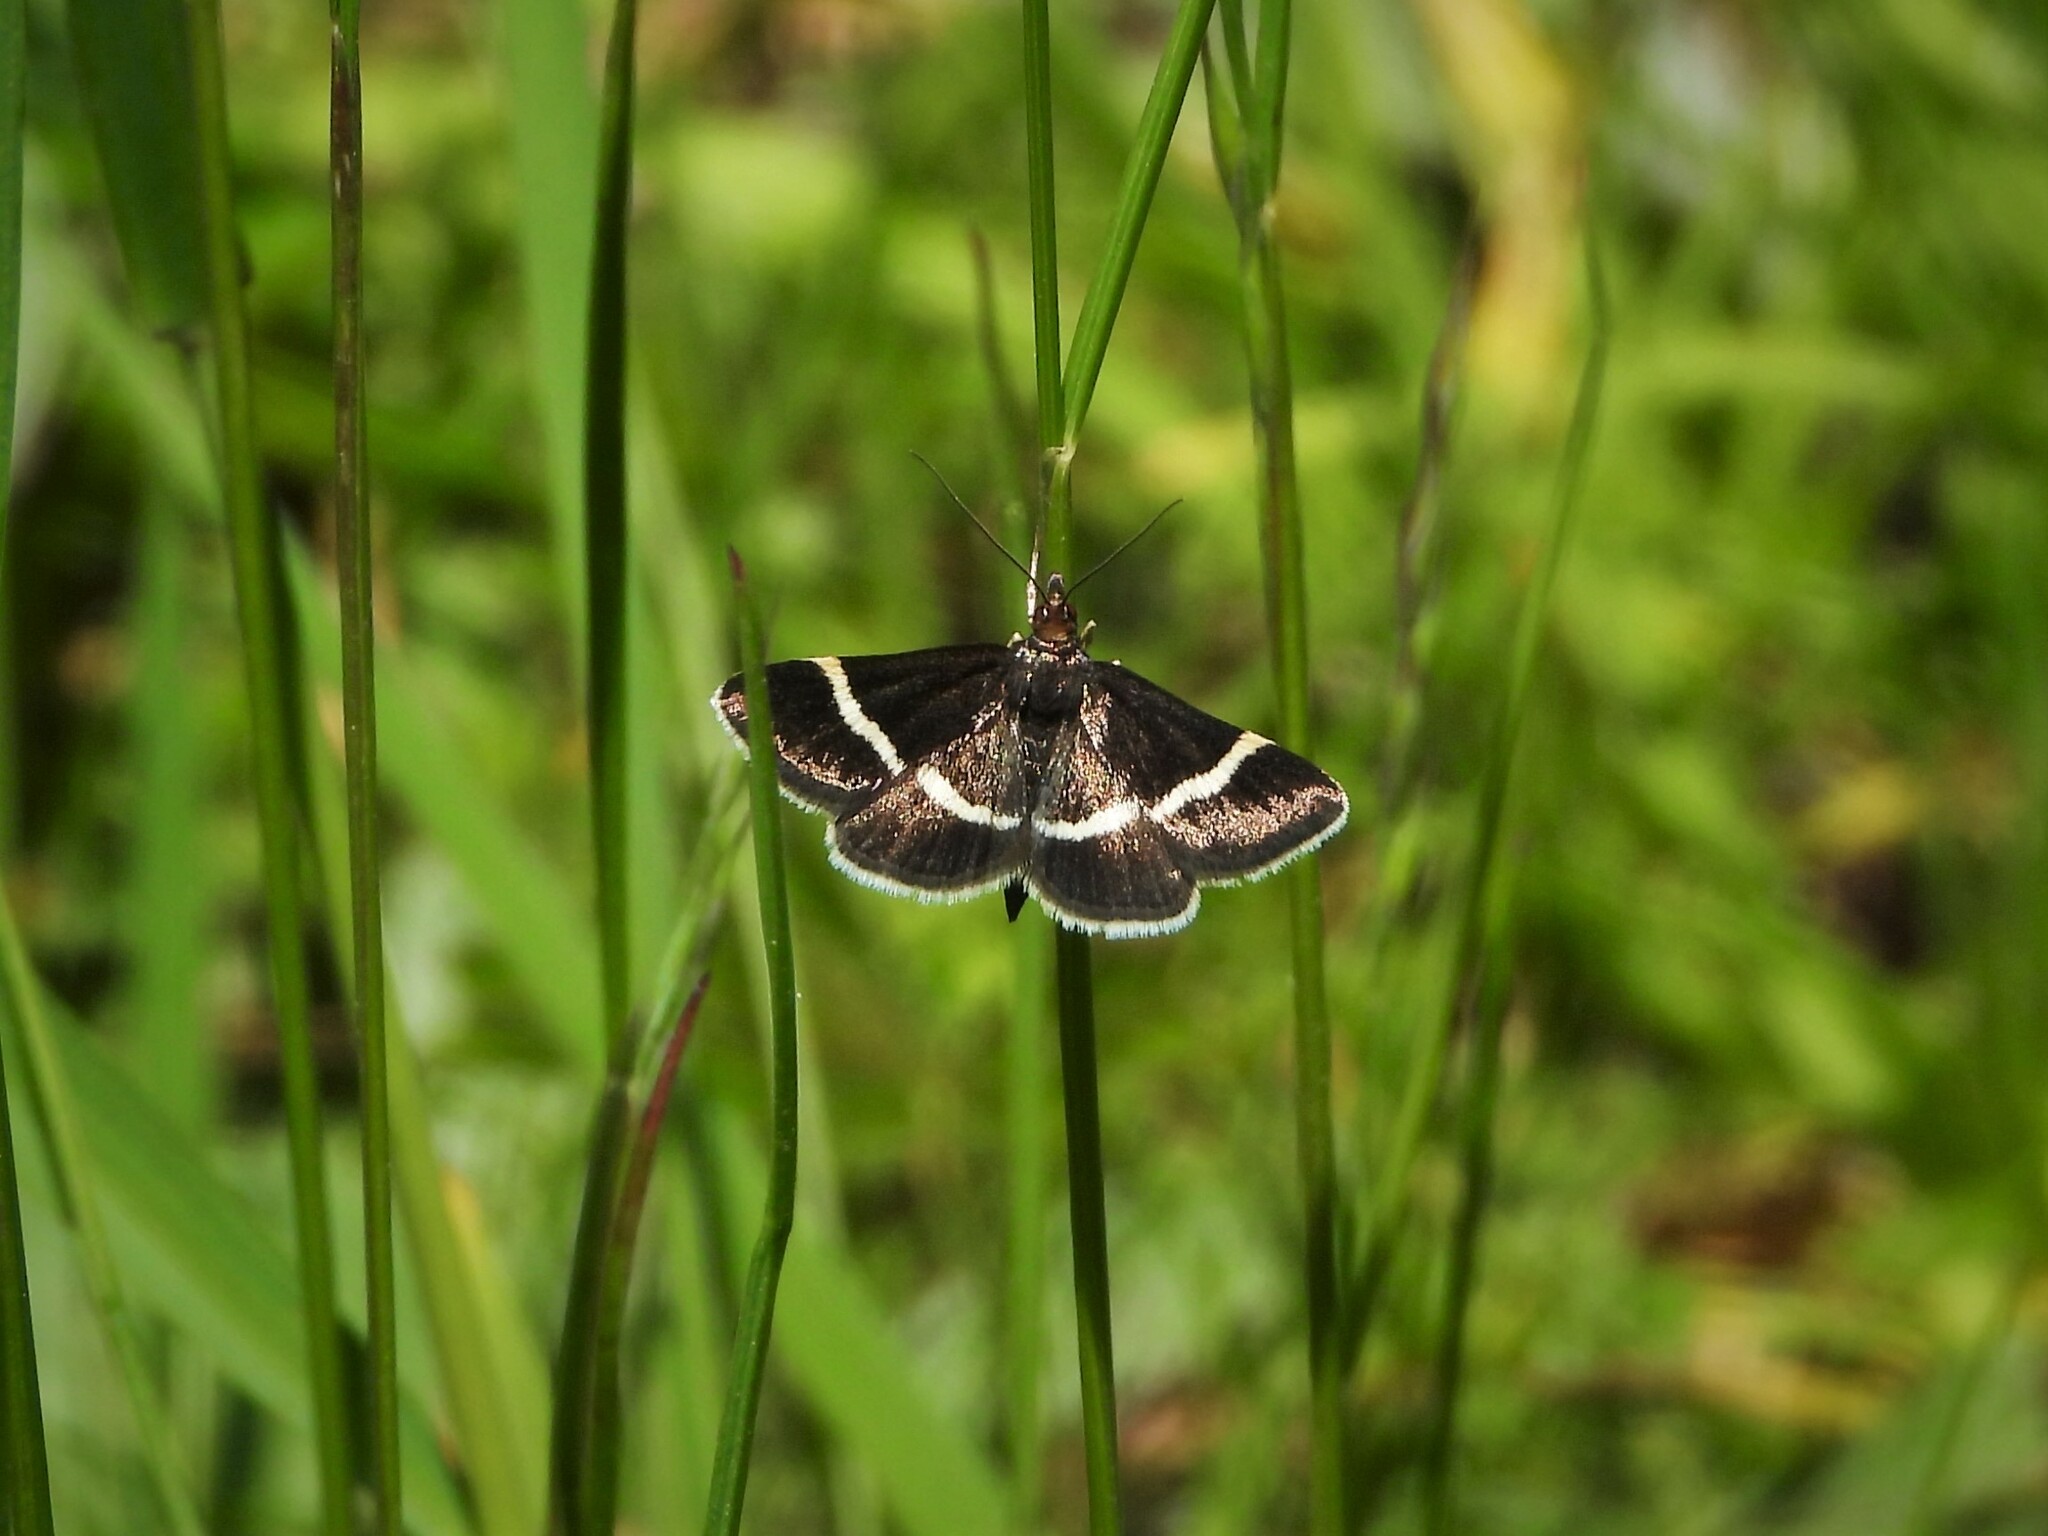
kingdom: Animalia
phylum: Arthropoda
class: Insecta
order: Lepidoptera
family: Crambidae
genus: Pyrausta
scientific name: Pyrausta cingulata
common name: Silver-barred sable
